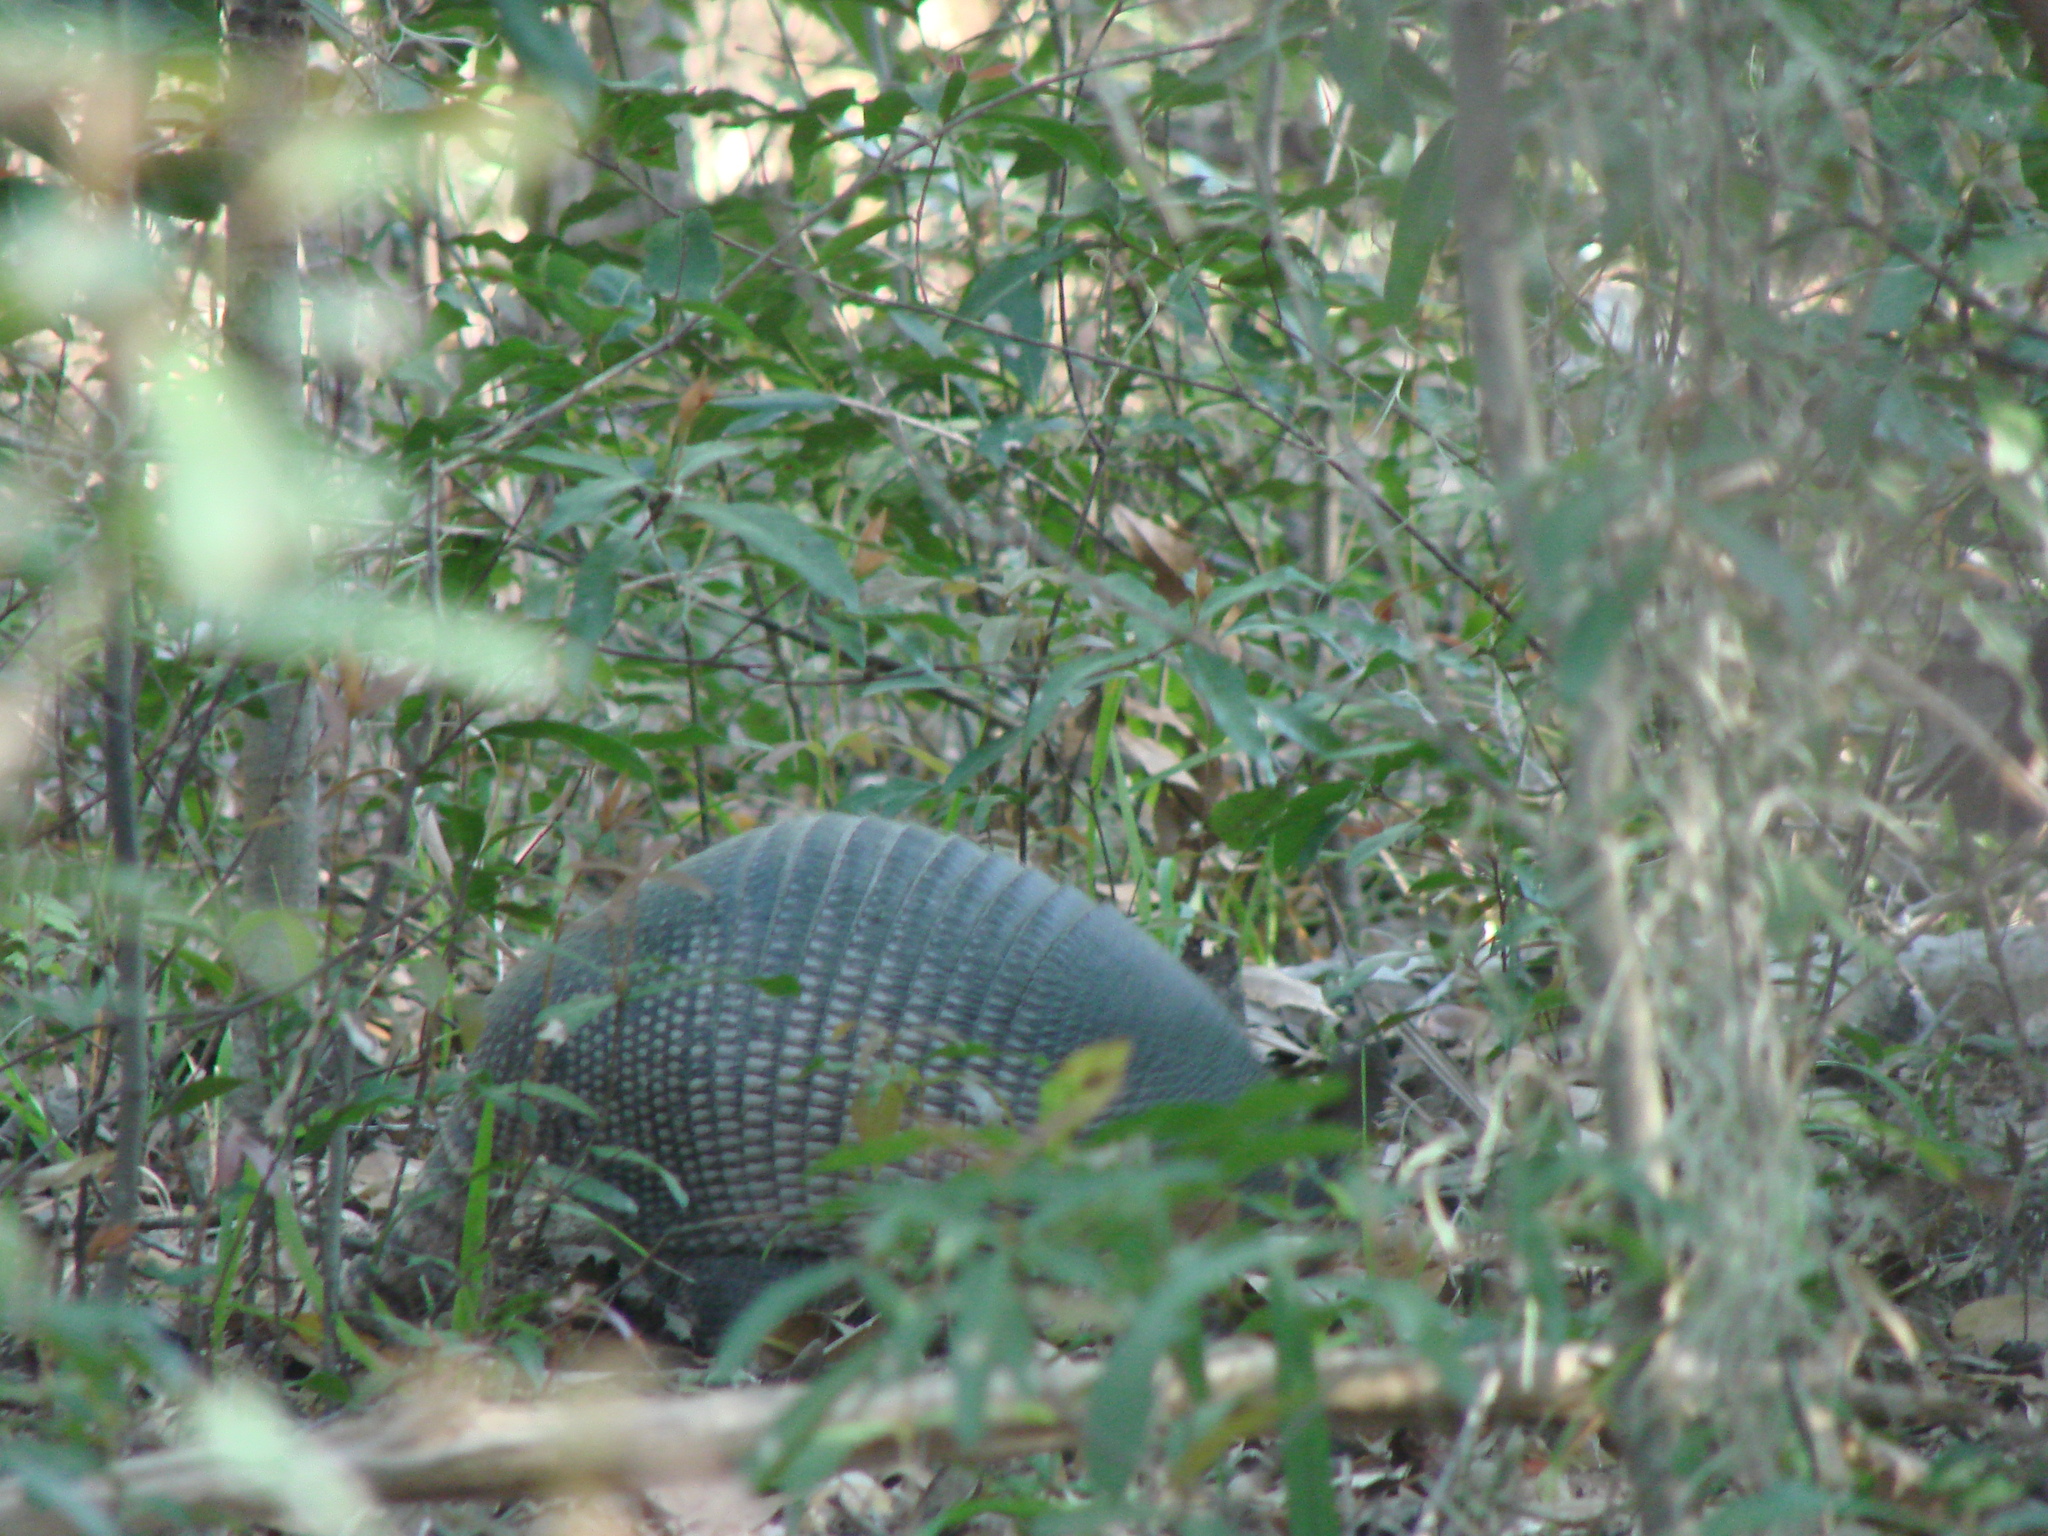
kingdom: Animalia
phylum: Chordata
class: Mammalia
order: Cingulata
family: Dasypodidae
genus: Dasypus
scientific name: Dasypus novemcinctus
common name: Nine-banded armadillo
